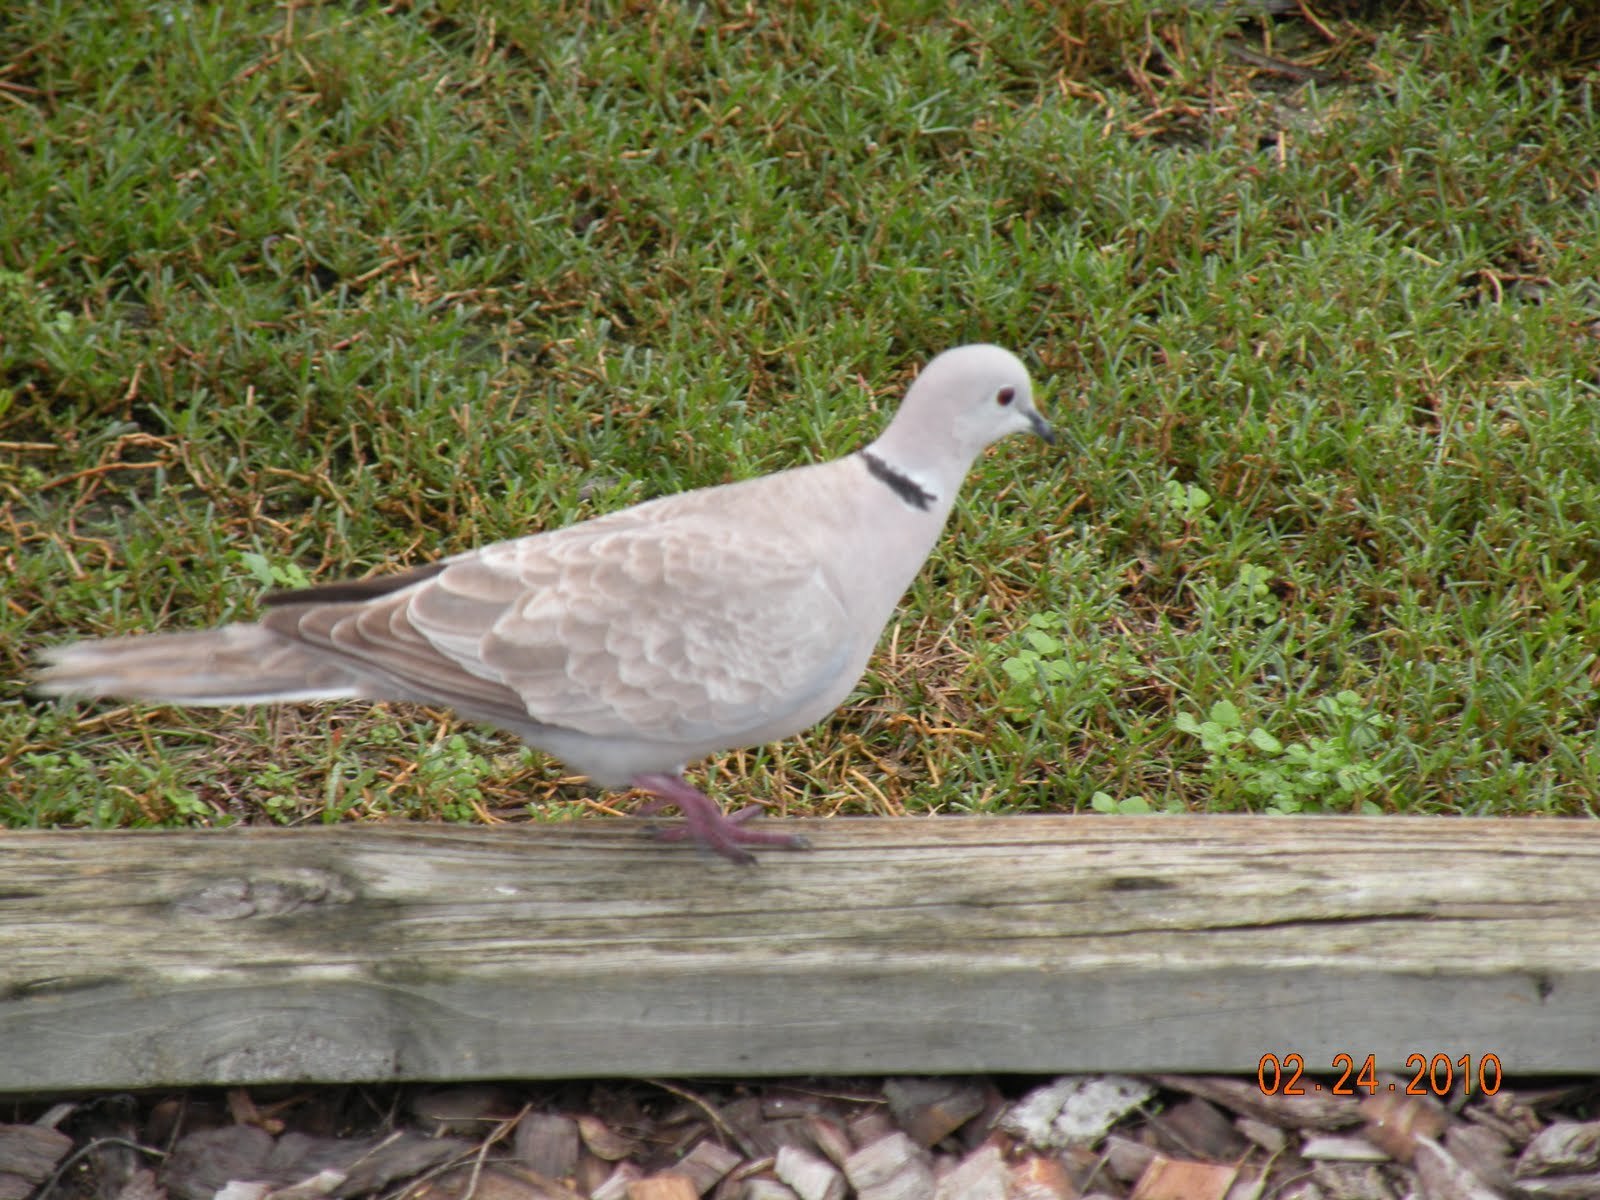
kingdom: Animalia
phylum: Chordata
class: Aves
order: Columbiformes
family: Columbidae
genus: Streptopelia
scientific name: Streptopelia decaocto
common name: Eurasian collared dove
